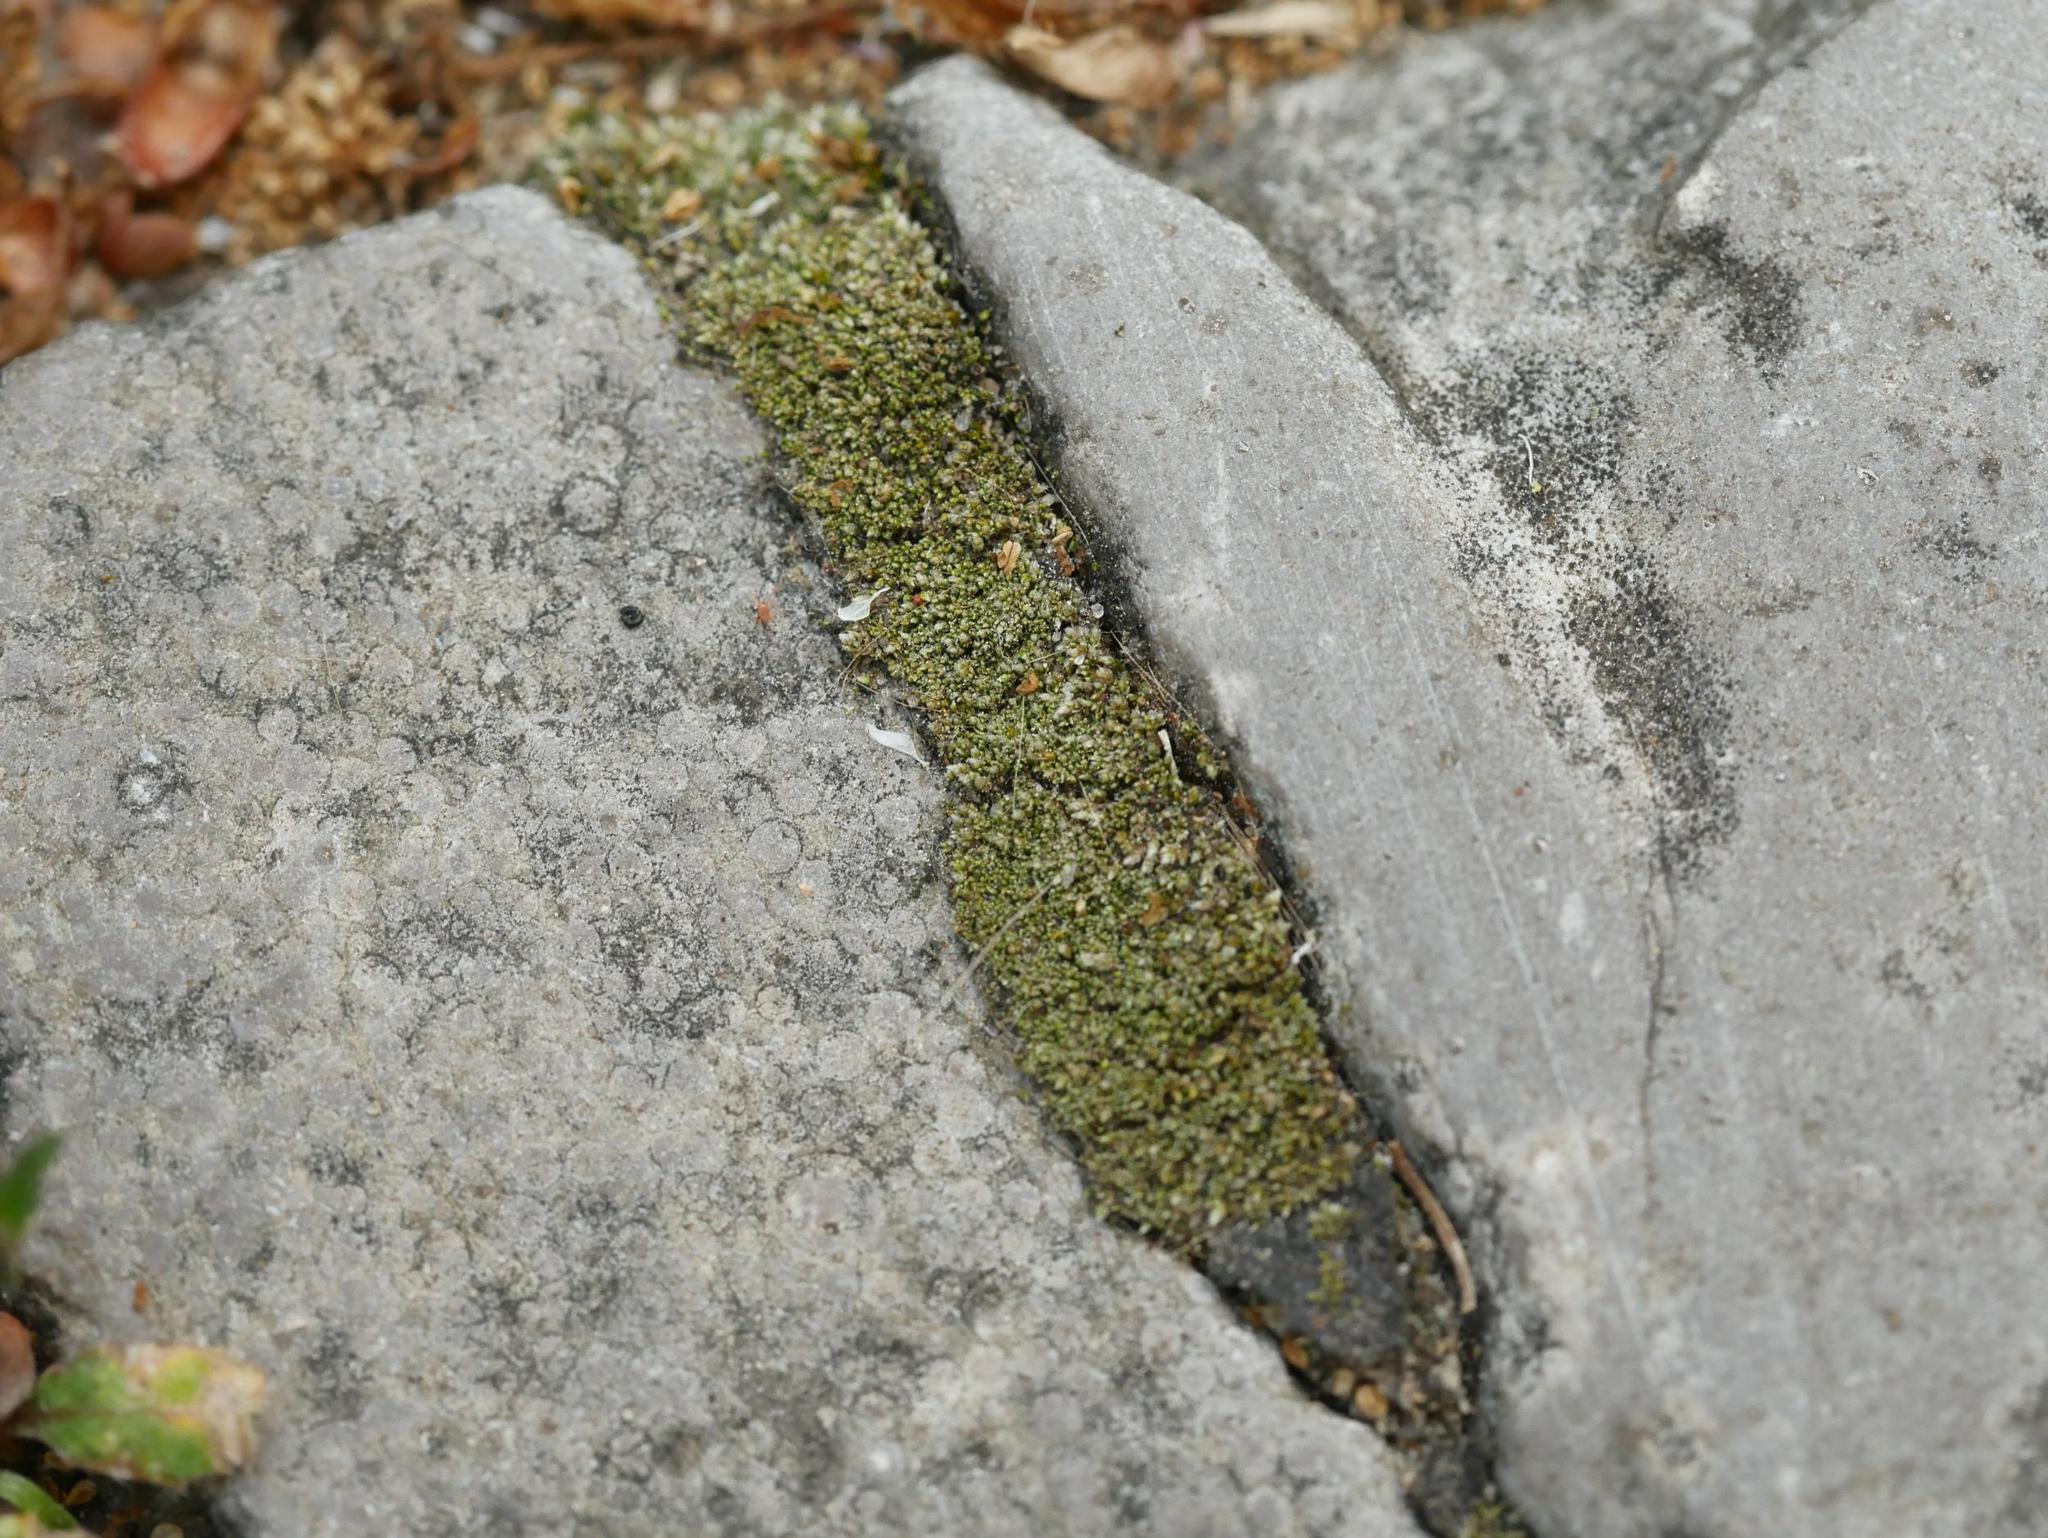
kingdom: Plantae
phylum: Bryophyta
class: Bryopsida
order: Bryales
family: Bryaceae
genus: Bryum
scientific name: Bryum argenteum
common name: Silver-moss
